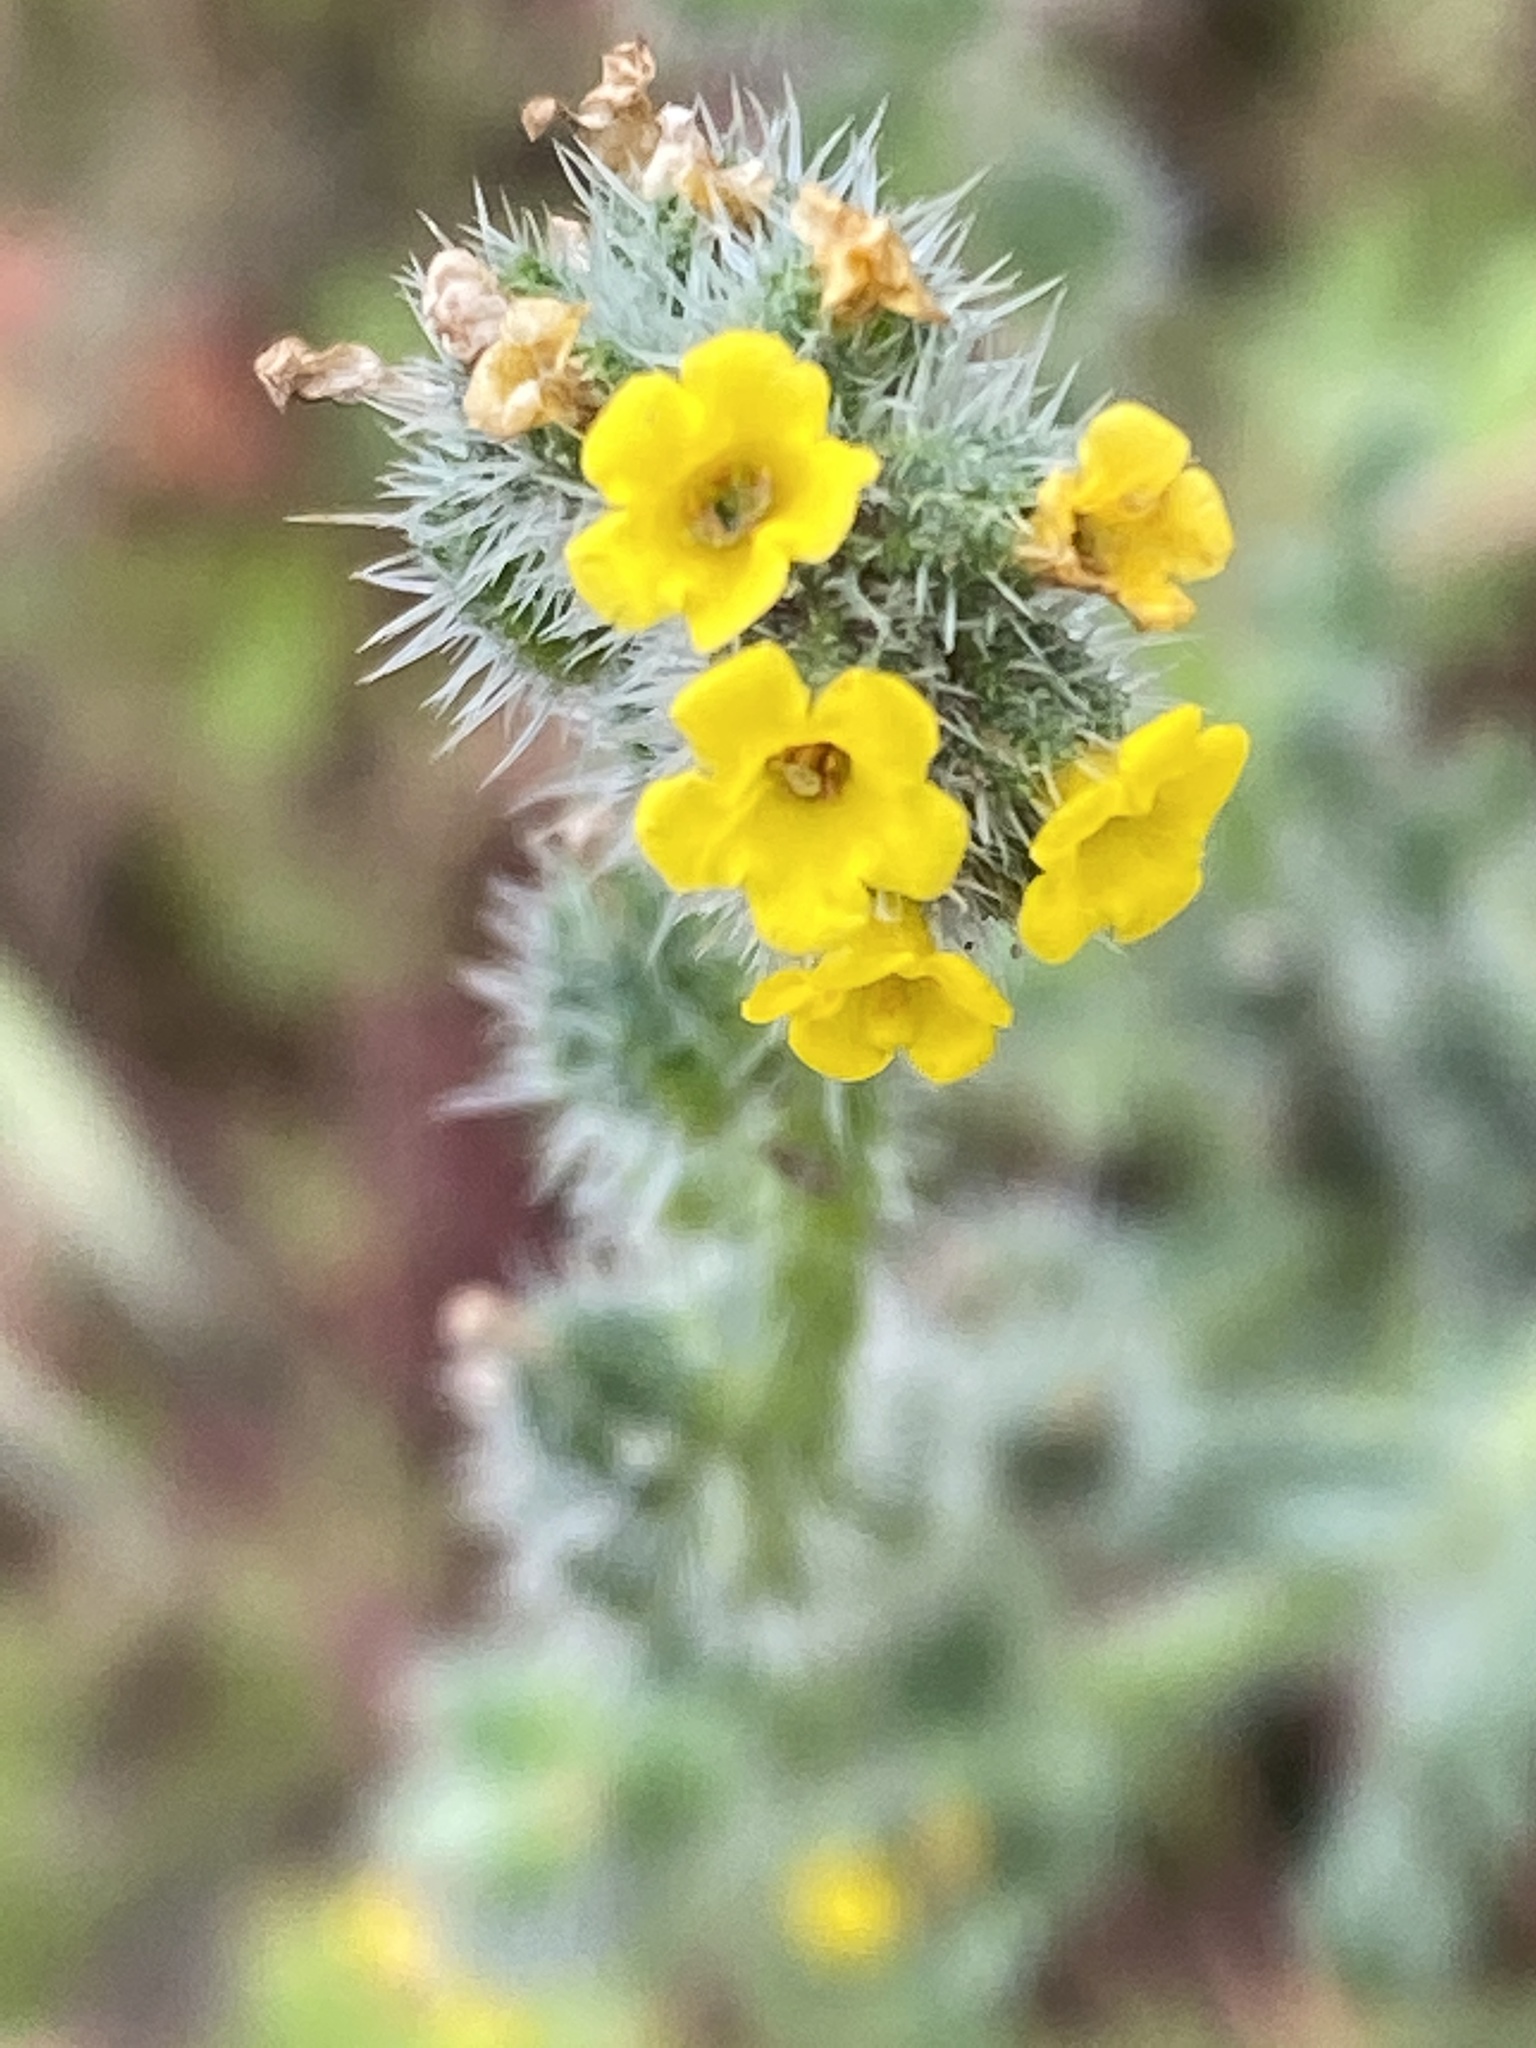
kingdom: Plantae
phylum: Tracheophyta
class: Magnoliopsida
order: Boraginales
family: Boraginaceae
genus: Amsinckia
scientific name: Amsinckia menziesii
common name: Menzies' fiddleneck
